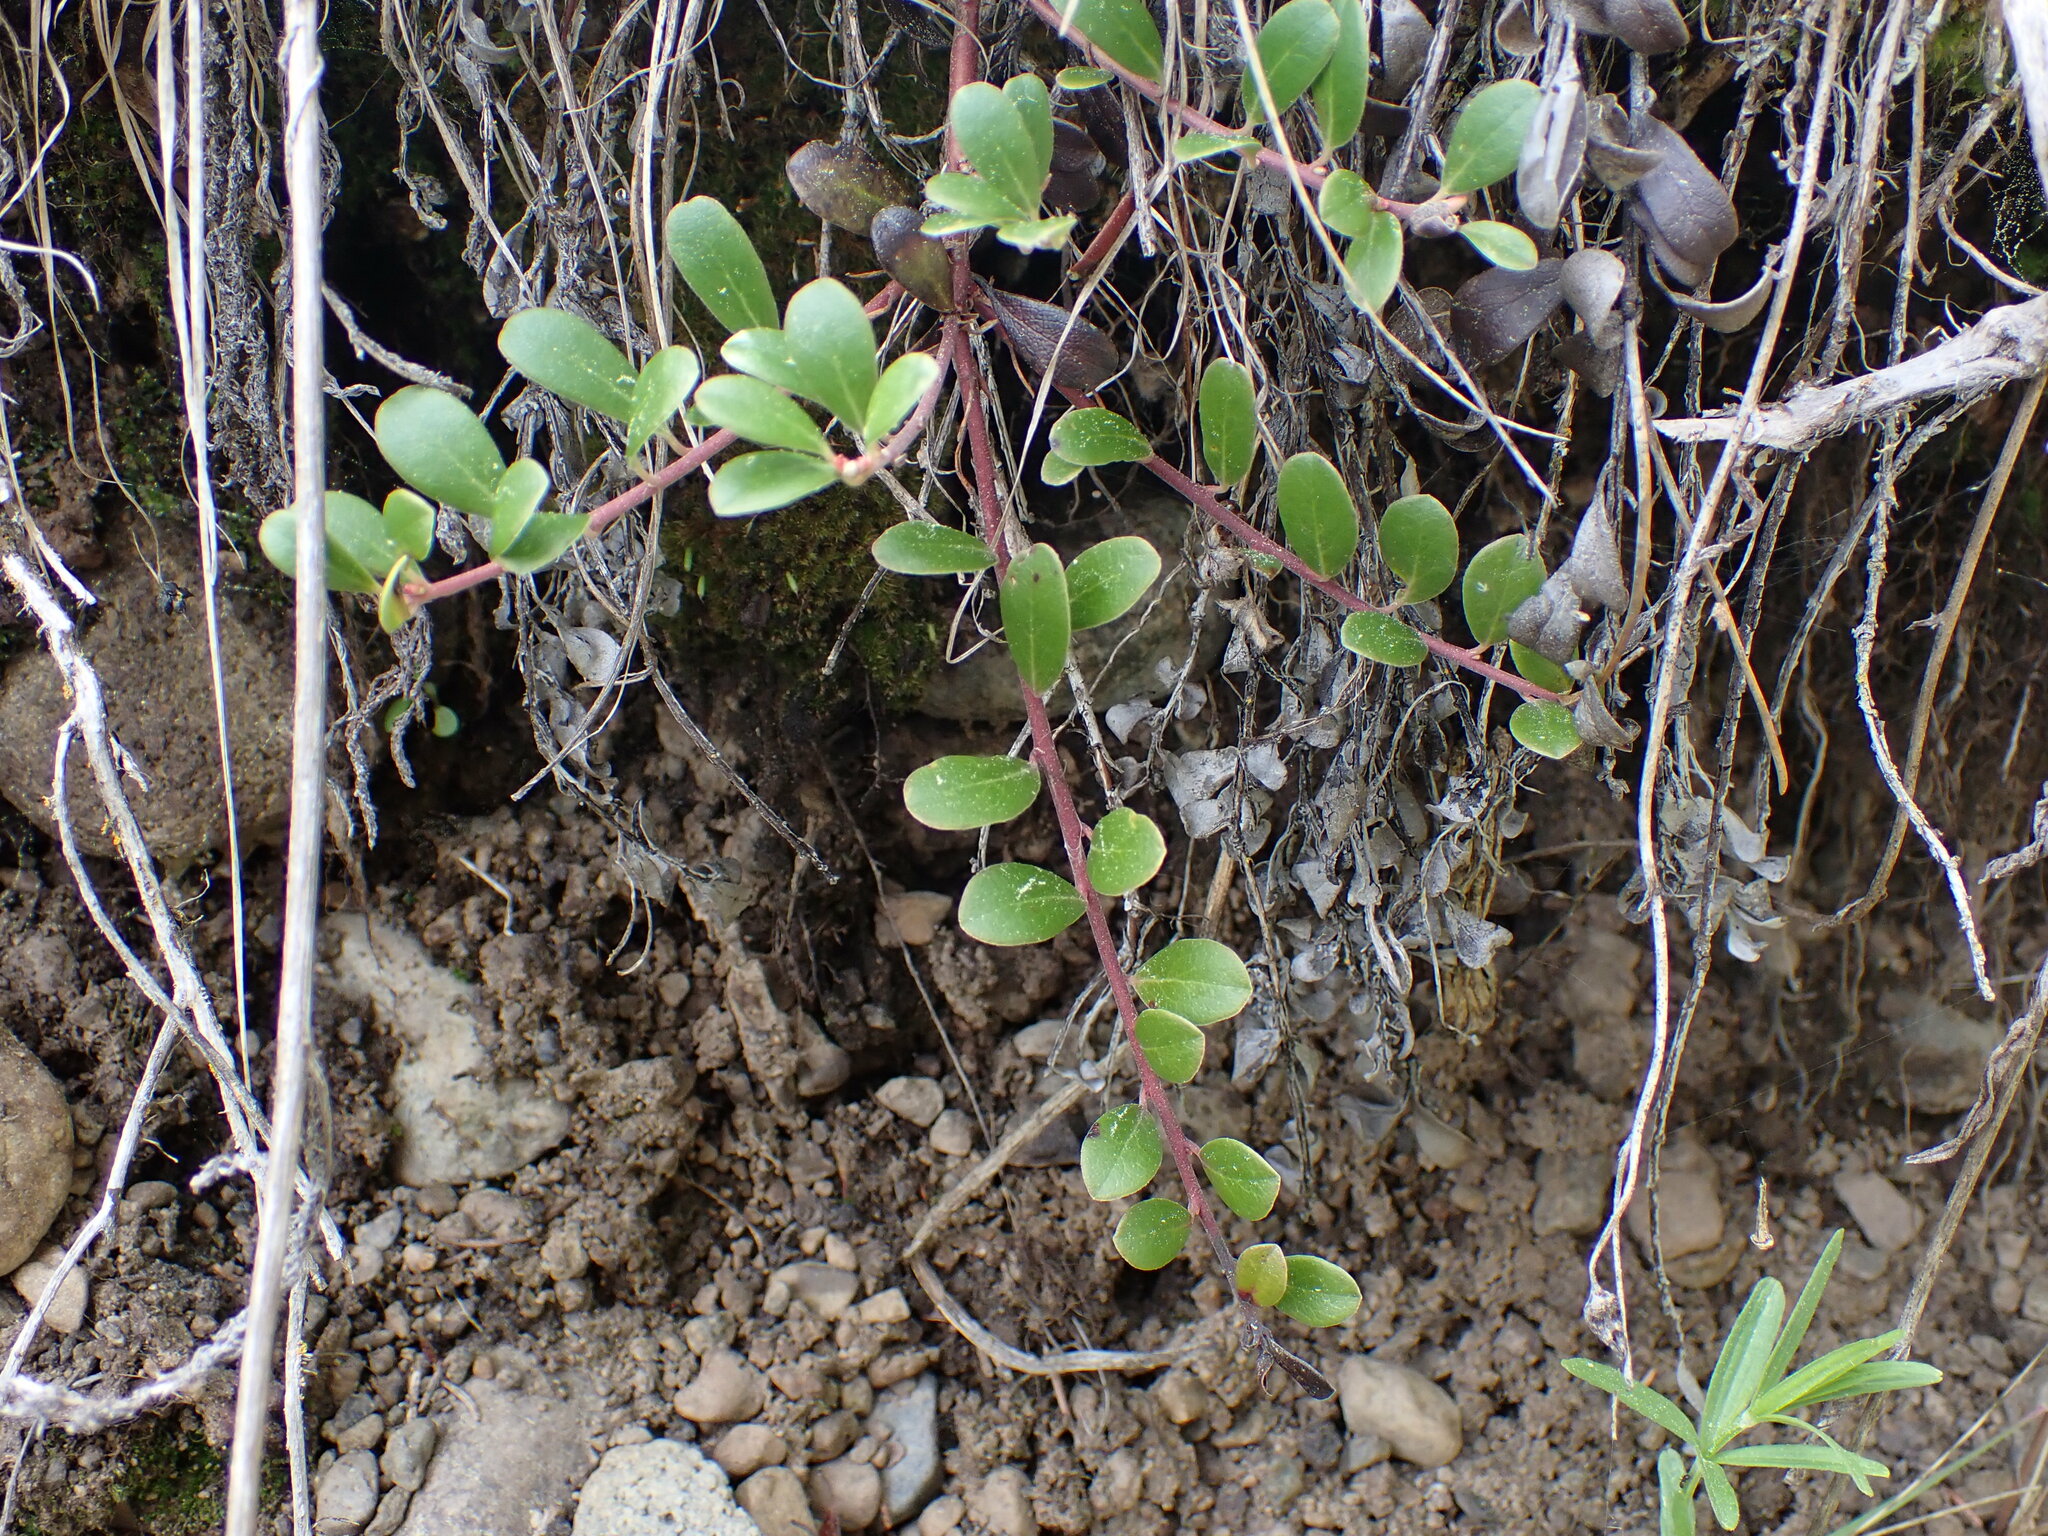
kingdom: Plantae
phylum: Tracheophyta
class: Magnoliopsida
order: Ericales
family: Ericaceae
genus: Arctostaphylos
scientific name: Arctostaphylos uva-ursi
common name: Bearberry
